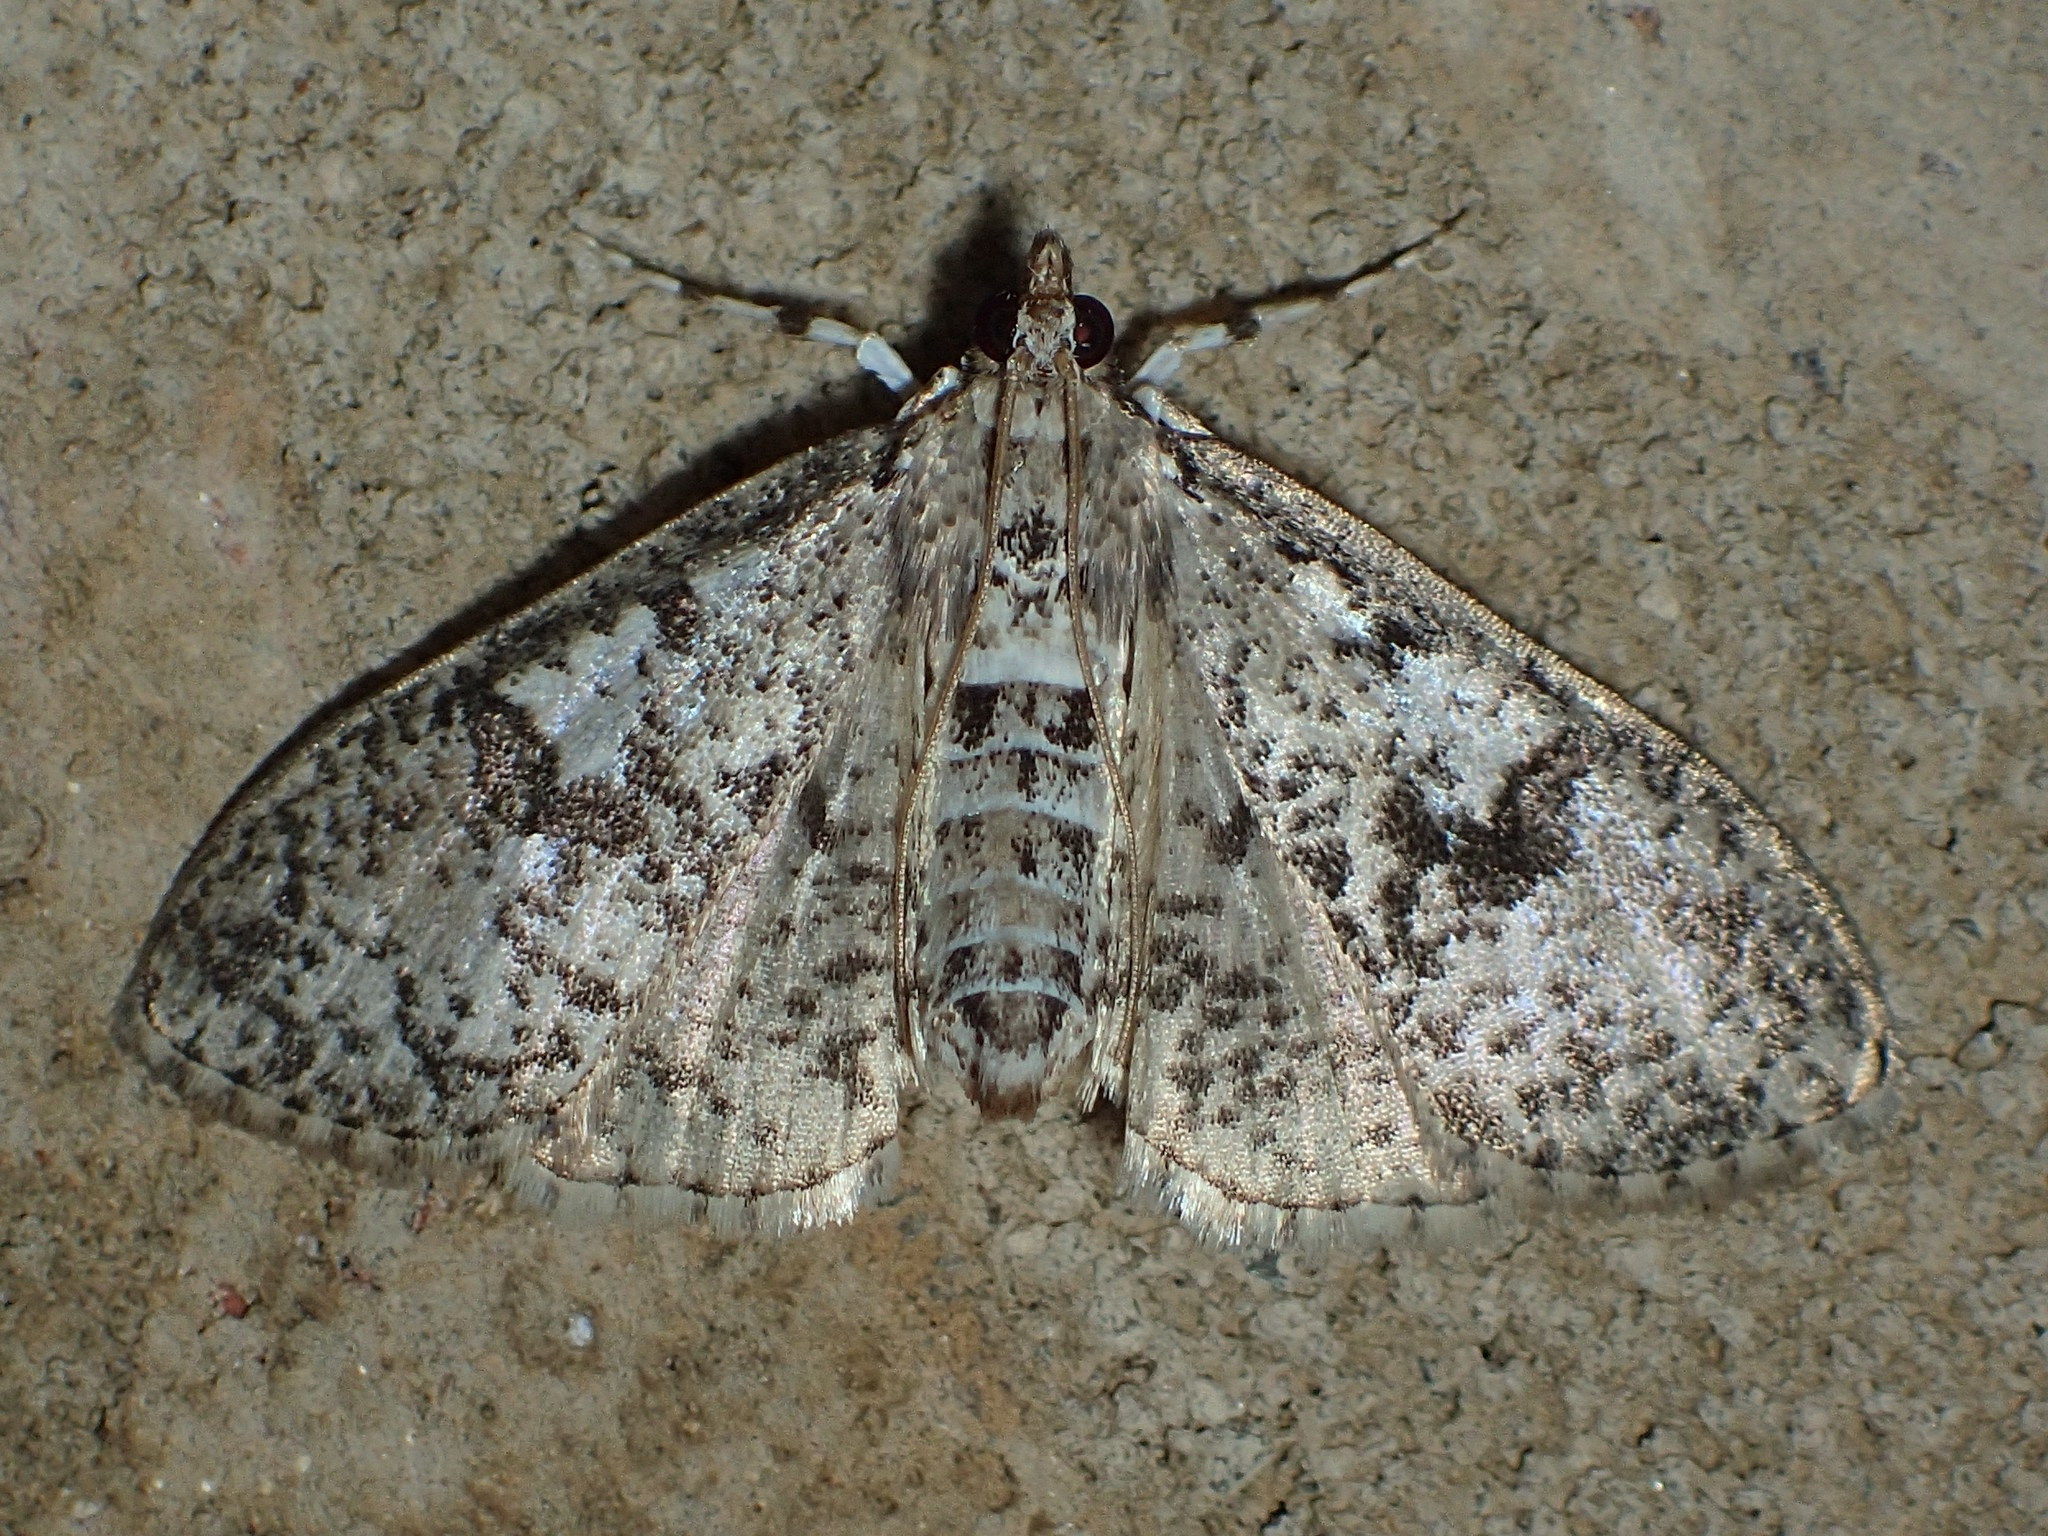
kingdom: Animalia
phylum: Arthropoda
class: Insecta
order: Lepidoptera
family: Crambidae
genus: Palpita
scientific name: Palpita freemanalis
